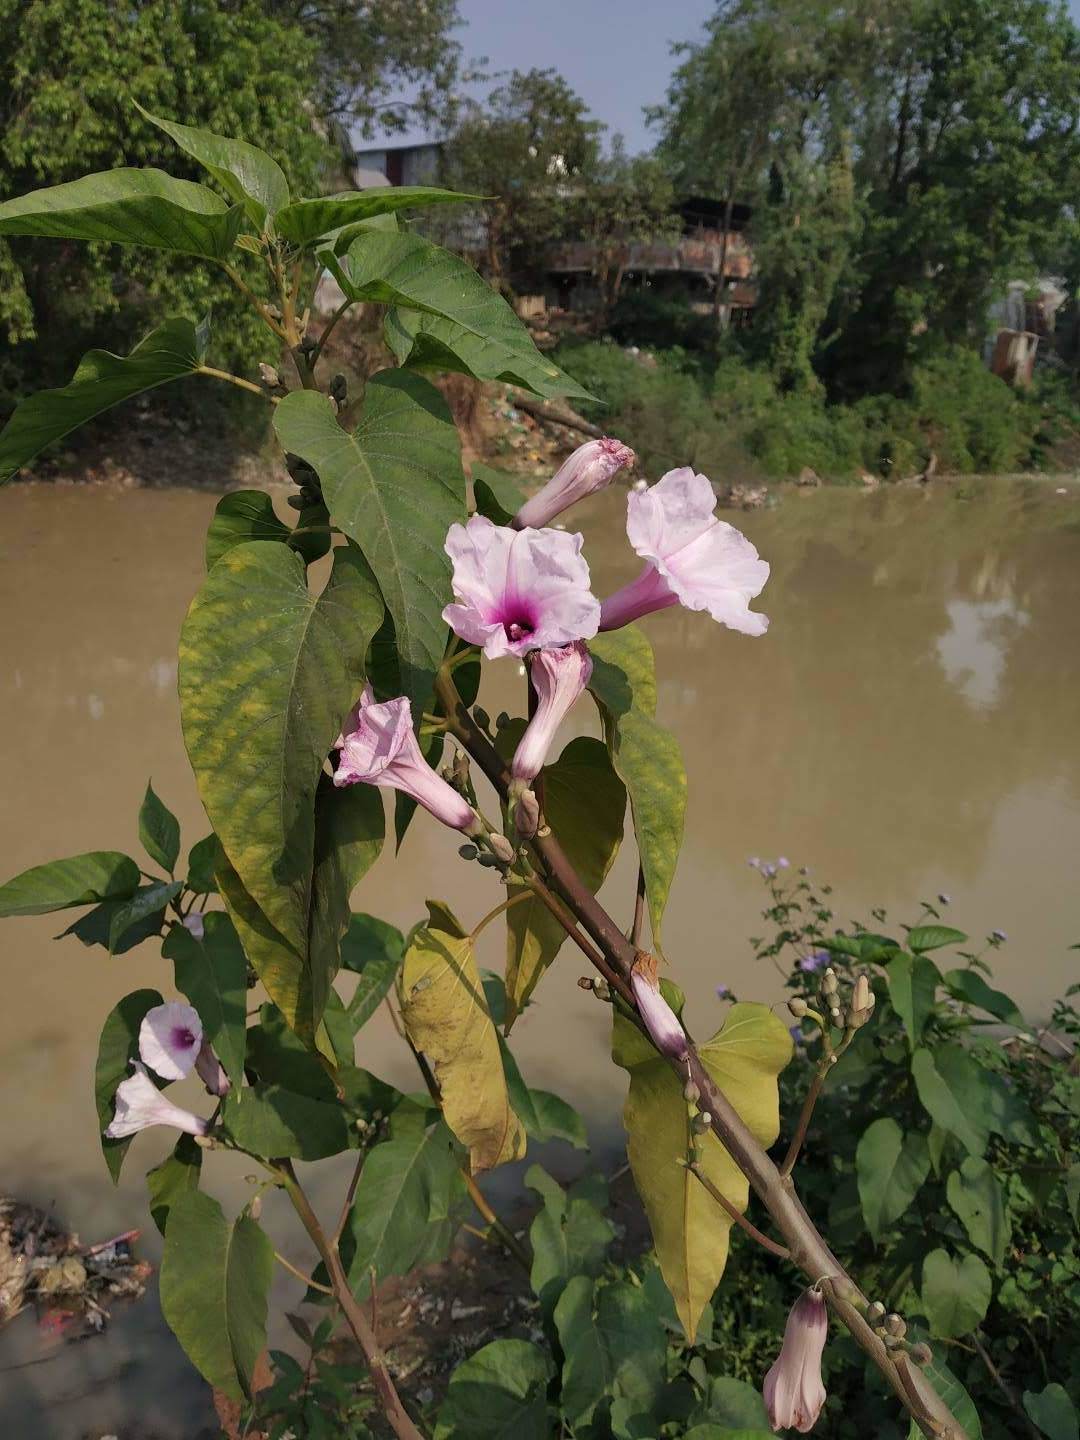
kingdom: Plantae
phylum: Tracheophyta
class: Magnoliopsida
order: Solanales
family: Convolvulaceae
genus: Ipomoea
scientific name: Ipomoea carnea
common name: Morning-glory
